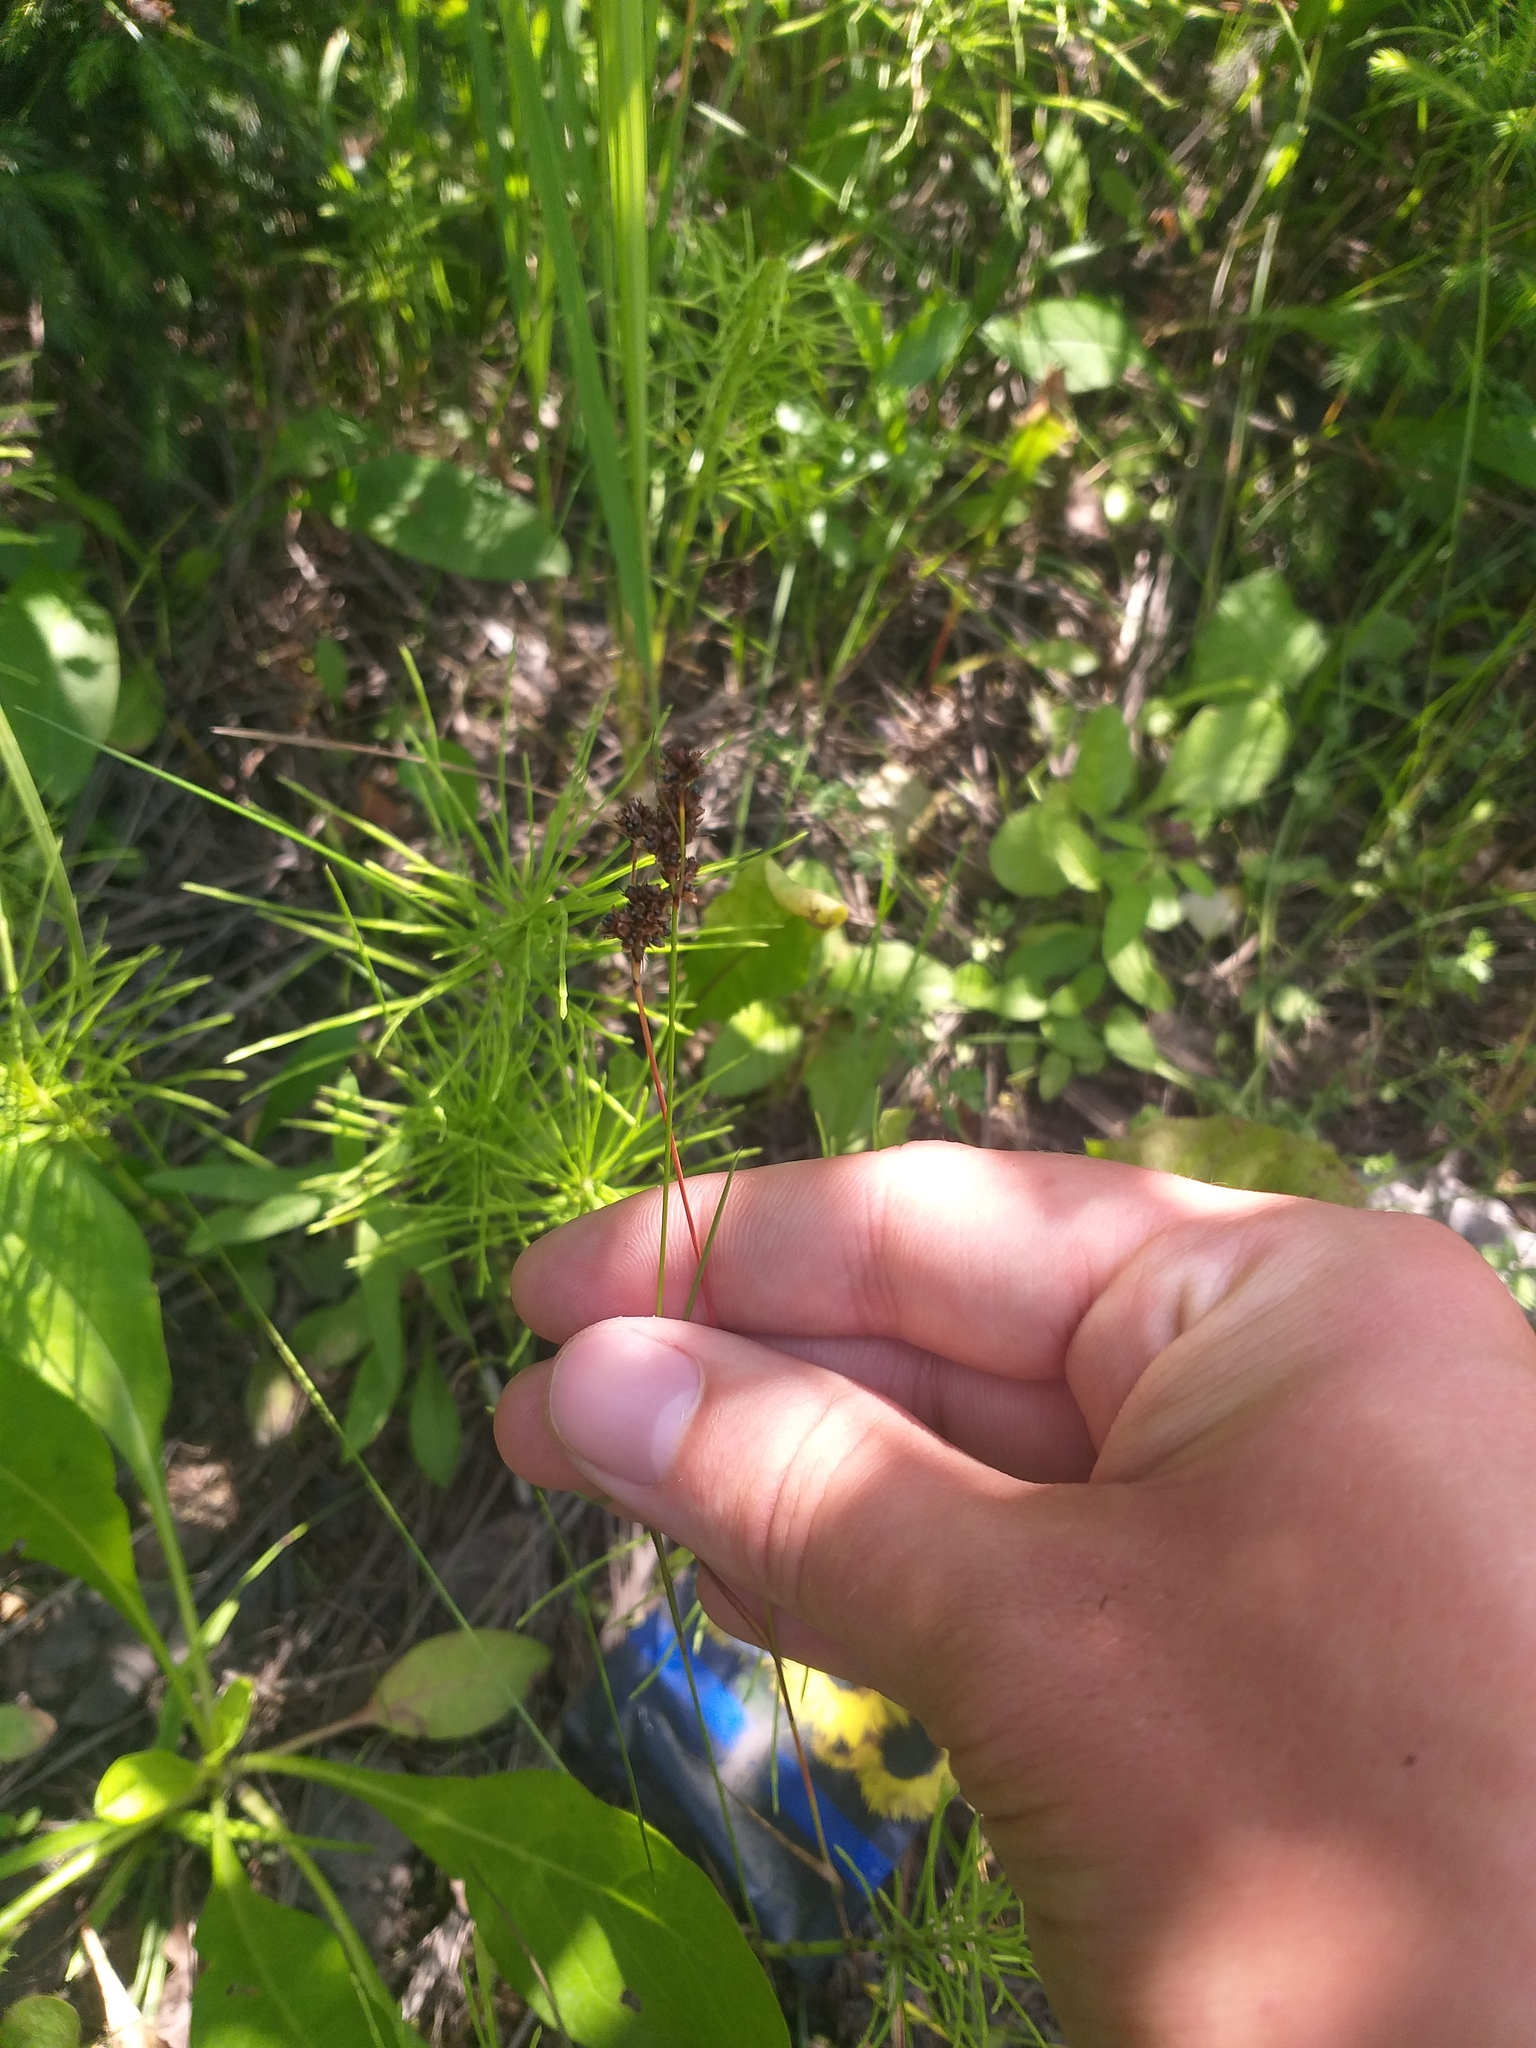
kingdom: Plantae
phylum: Tracheophyta
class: Liliopsida
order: Poales
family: Juncaceae
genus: Luzula
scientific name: Luzula multiflora
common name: Heath wood-rush
